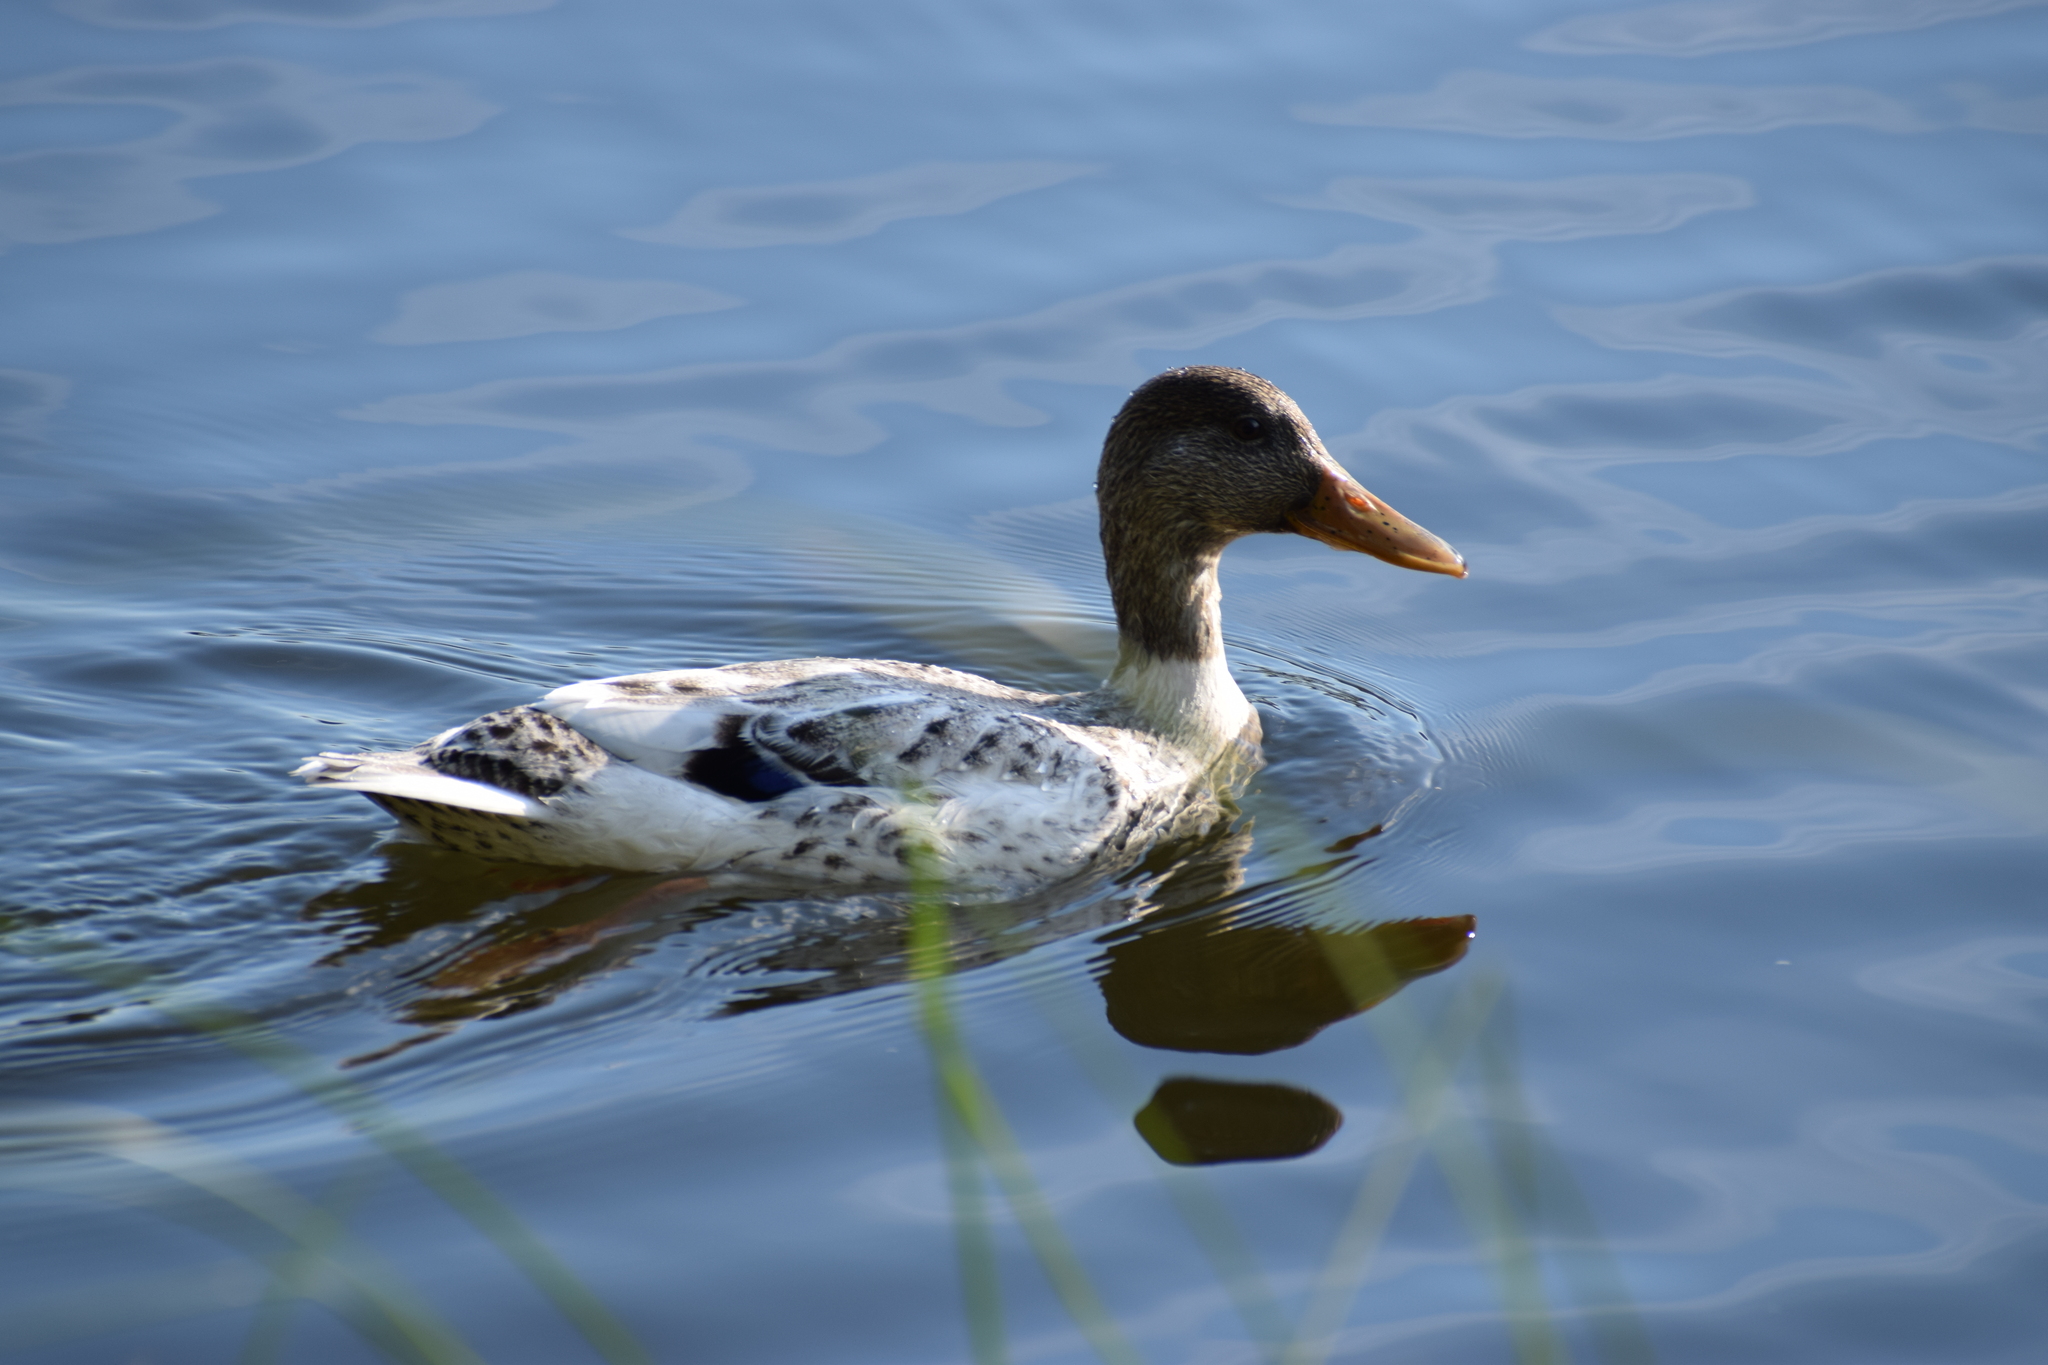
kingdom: Animalia
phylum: Chordata
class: Aves
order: Anseriformes
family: Anatidae
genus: Anas
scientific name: Anas platyrhynchos
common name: Mallard
